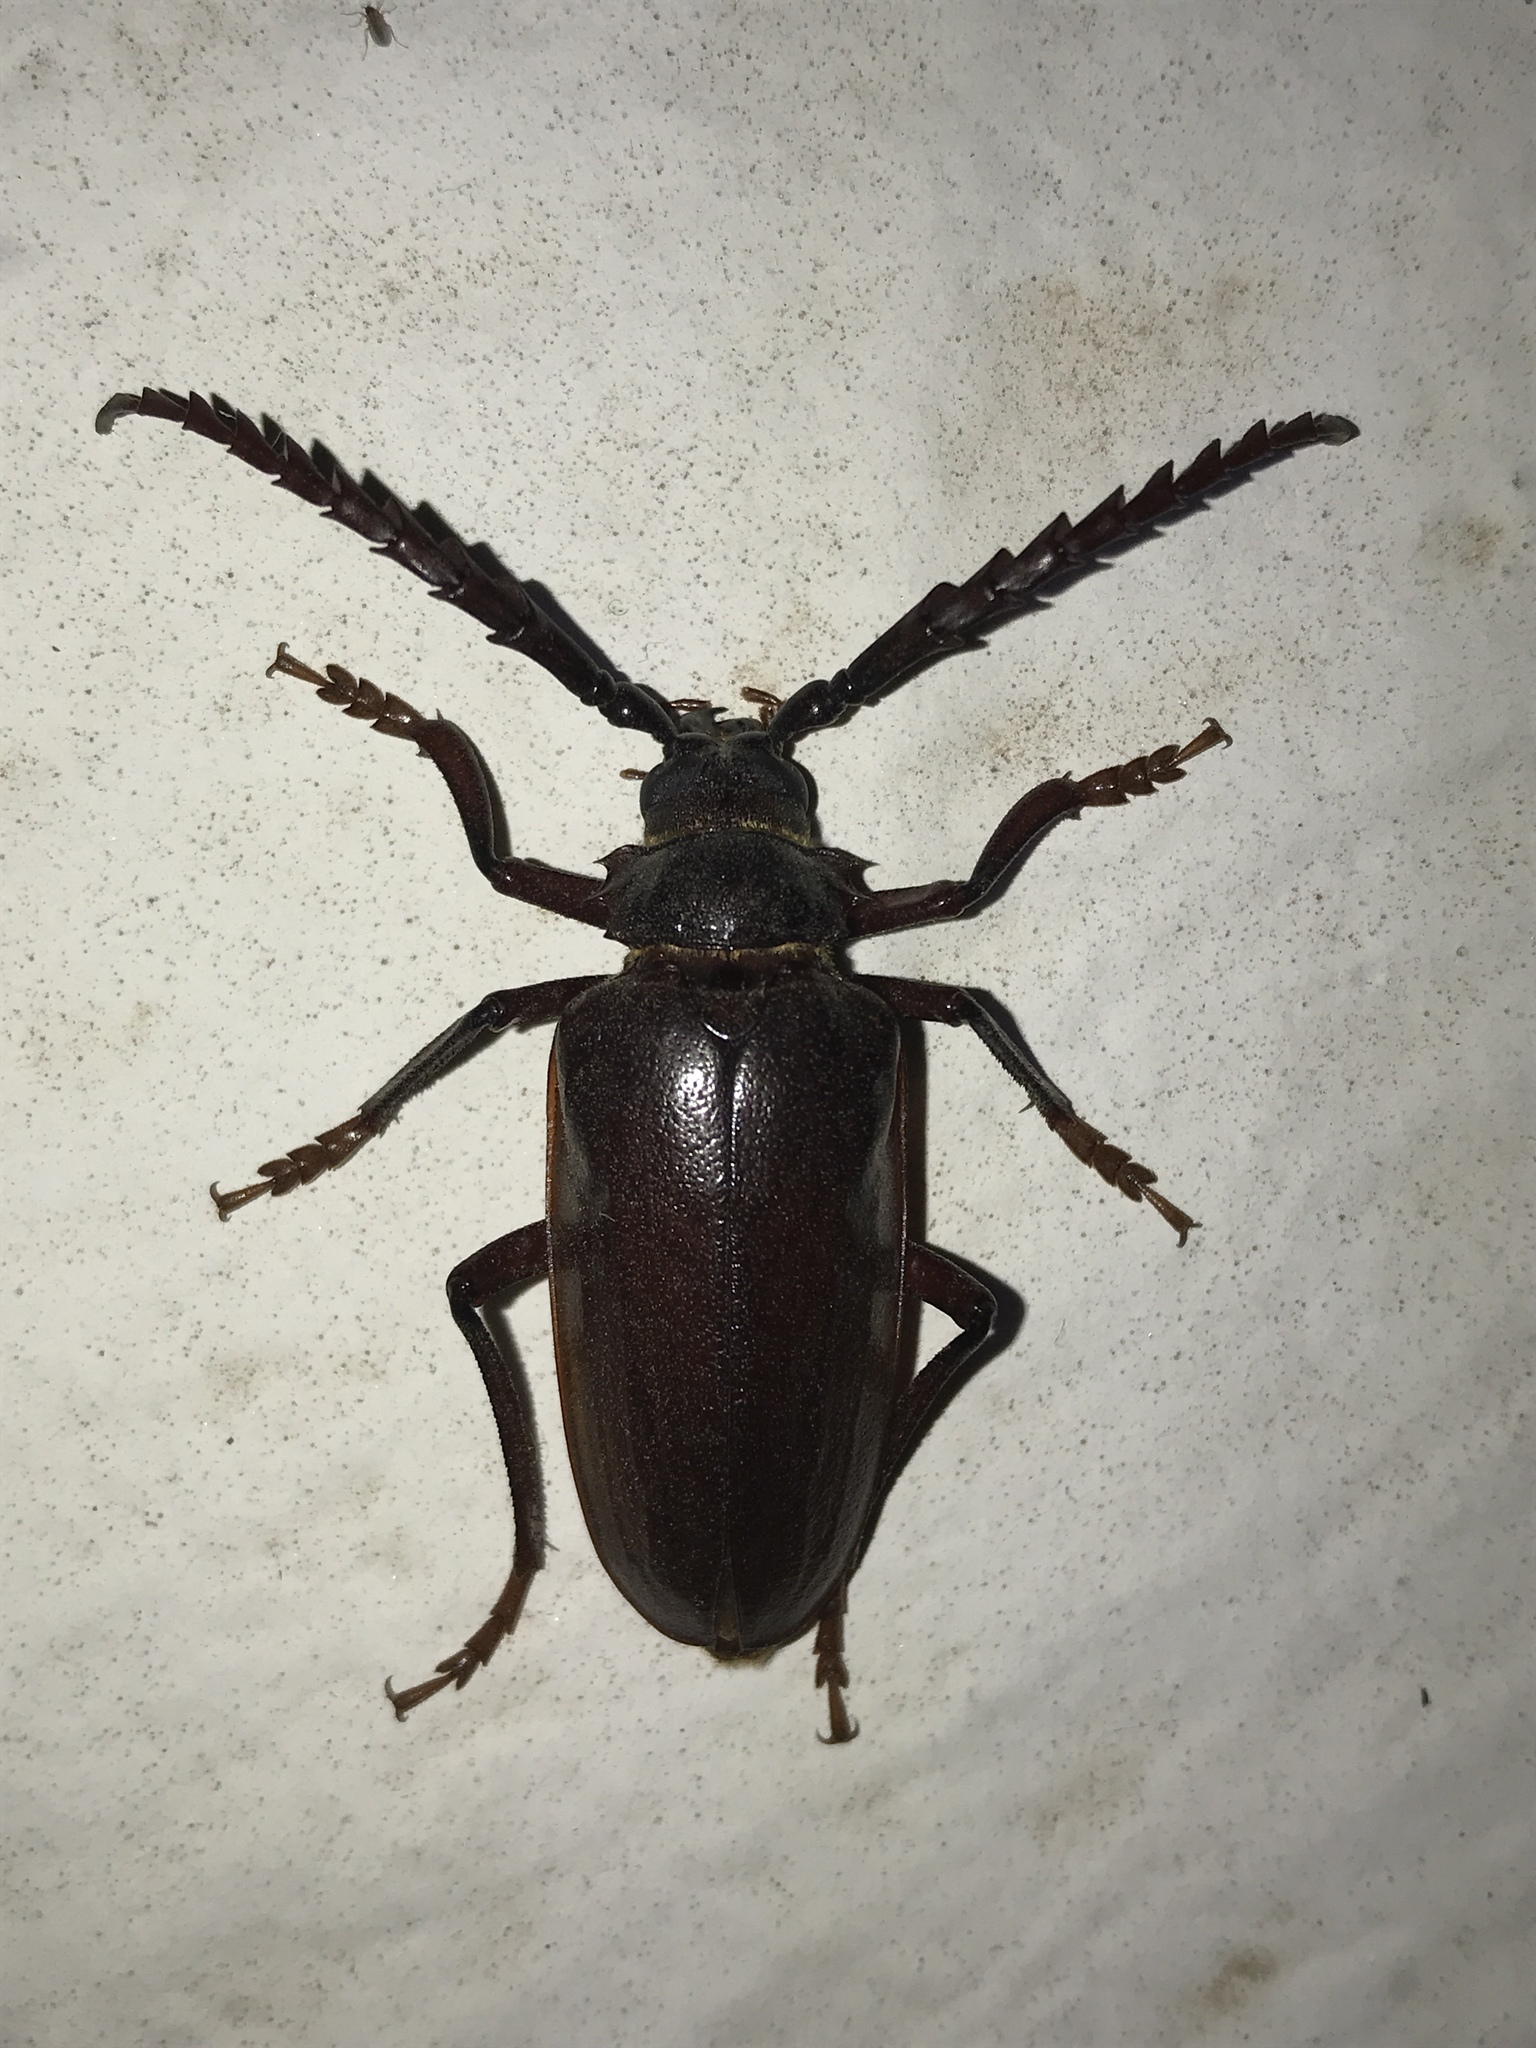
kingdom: Animalia
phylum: Arthropoda
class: Insecta
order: Coleoptera
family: Cerambycidae
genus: Prionus
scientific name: Prionus californicus
